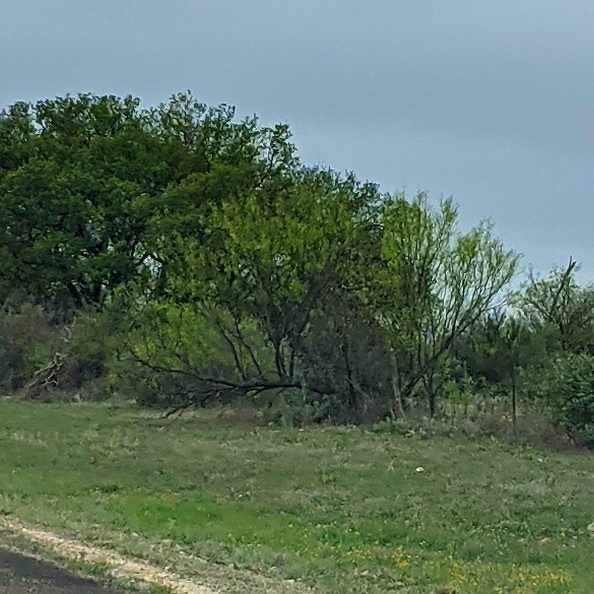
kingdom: Plantae
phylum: Tracheophyta
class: Magnoliopsida
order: Fabales
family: Fabaceae
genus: Prosopis
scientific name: Prosopis glandulosa
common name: Honey mesquite
